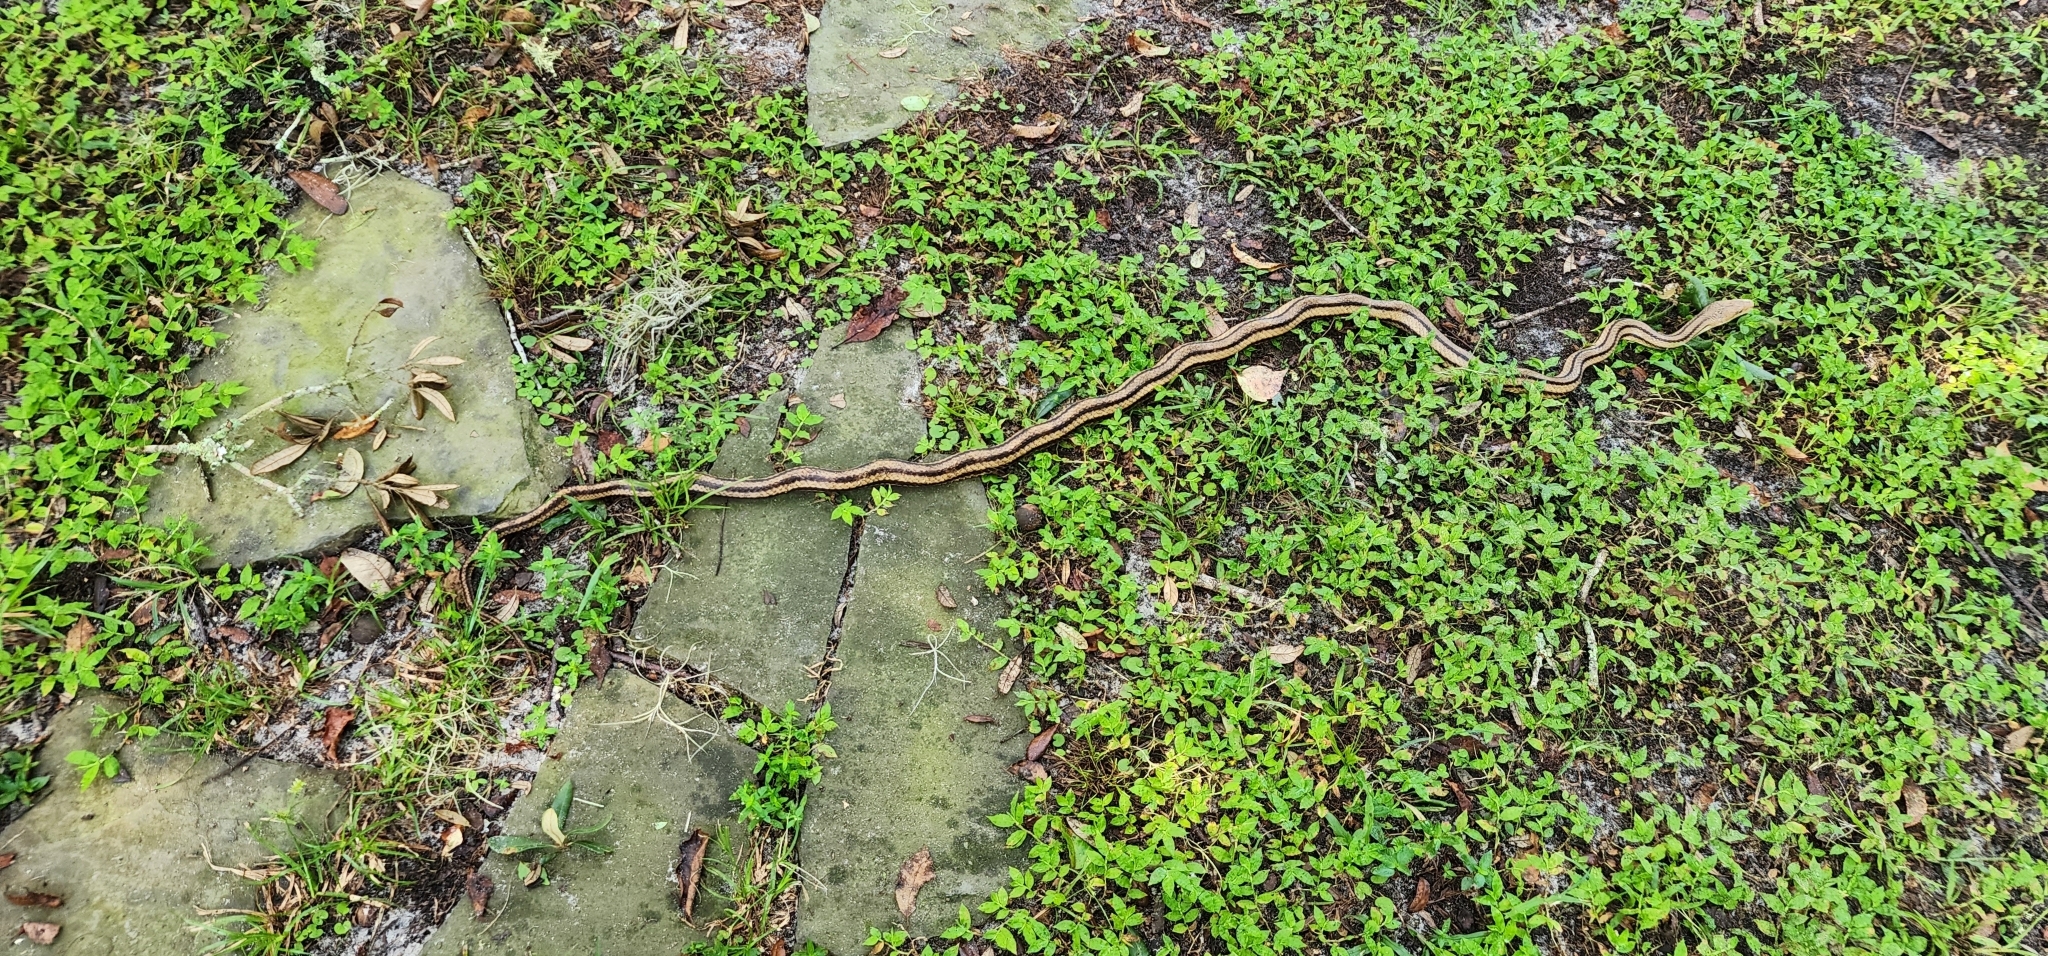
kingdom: Animalia
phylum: Chordata
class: Squamata
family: Colubridae
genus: Pantherophis
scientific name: Pantherophis alleghaniensis
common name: Eastern rat snake
